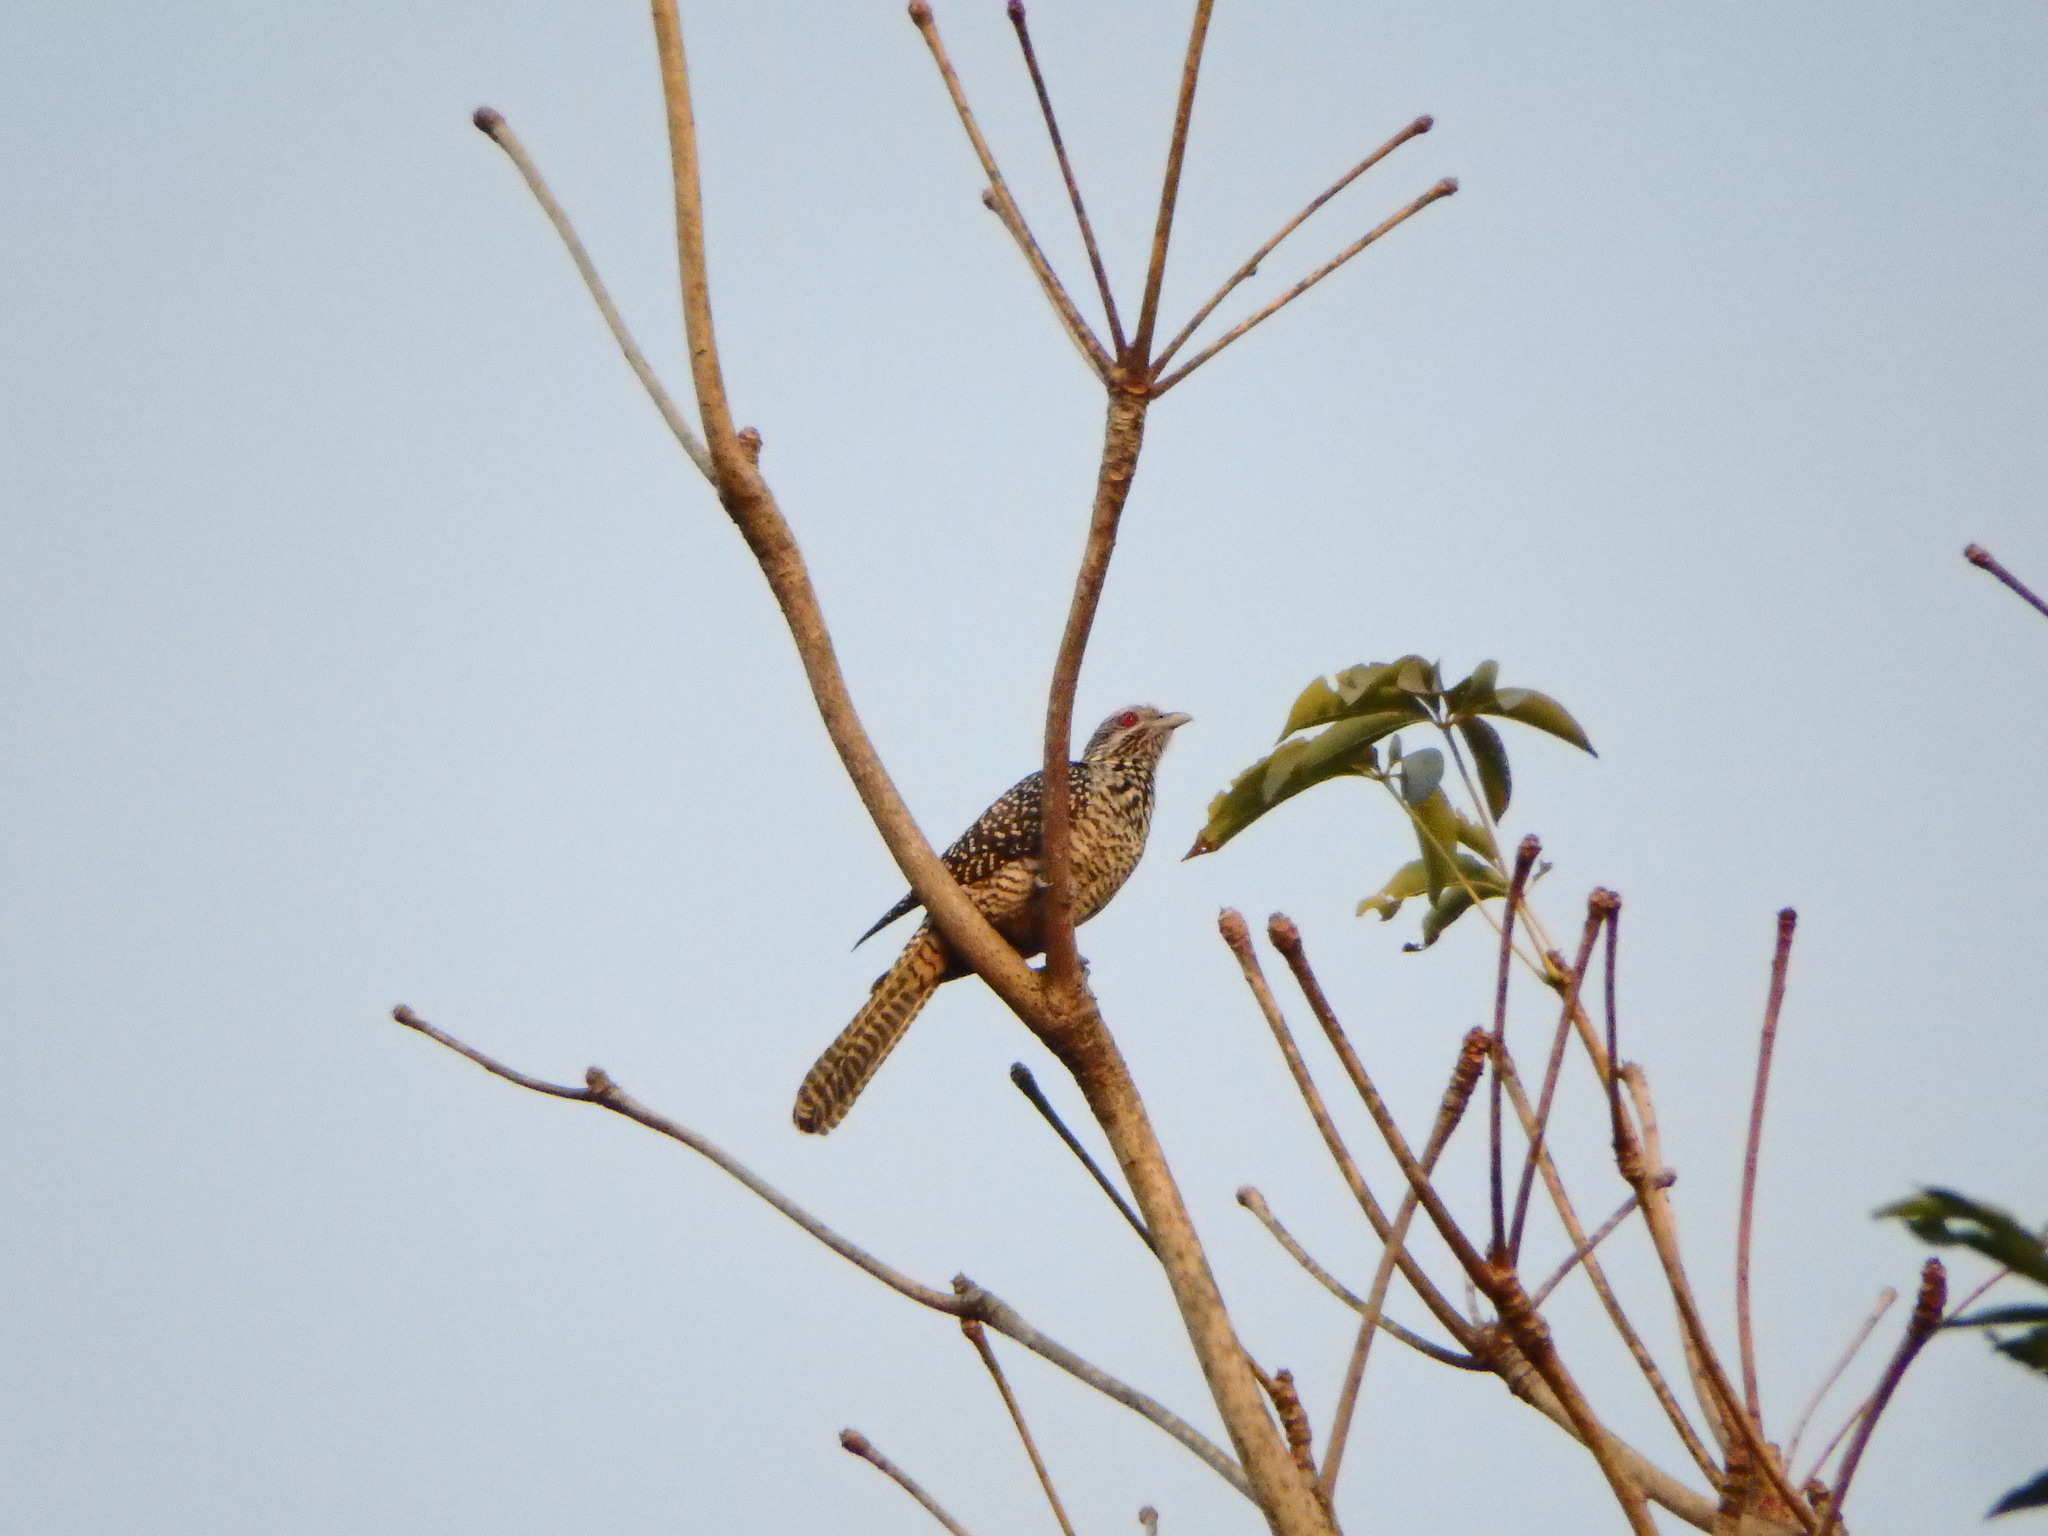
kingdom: Animalia
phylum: Chordata
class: Aves
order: Cuculiformes
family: Cuculidae
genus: Eudynamys
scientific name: Eudynamys scolopaceus
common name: Asian koel
